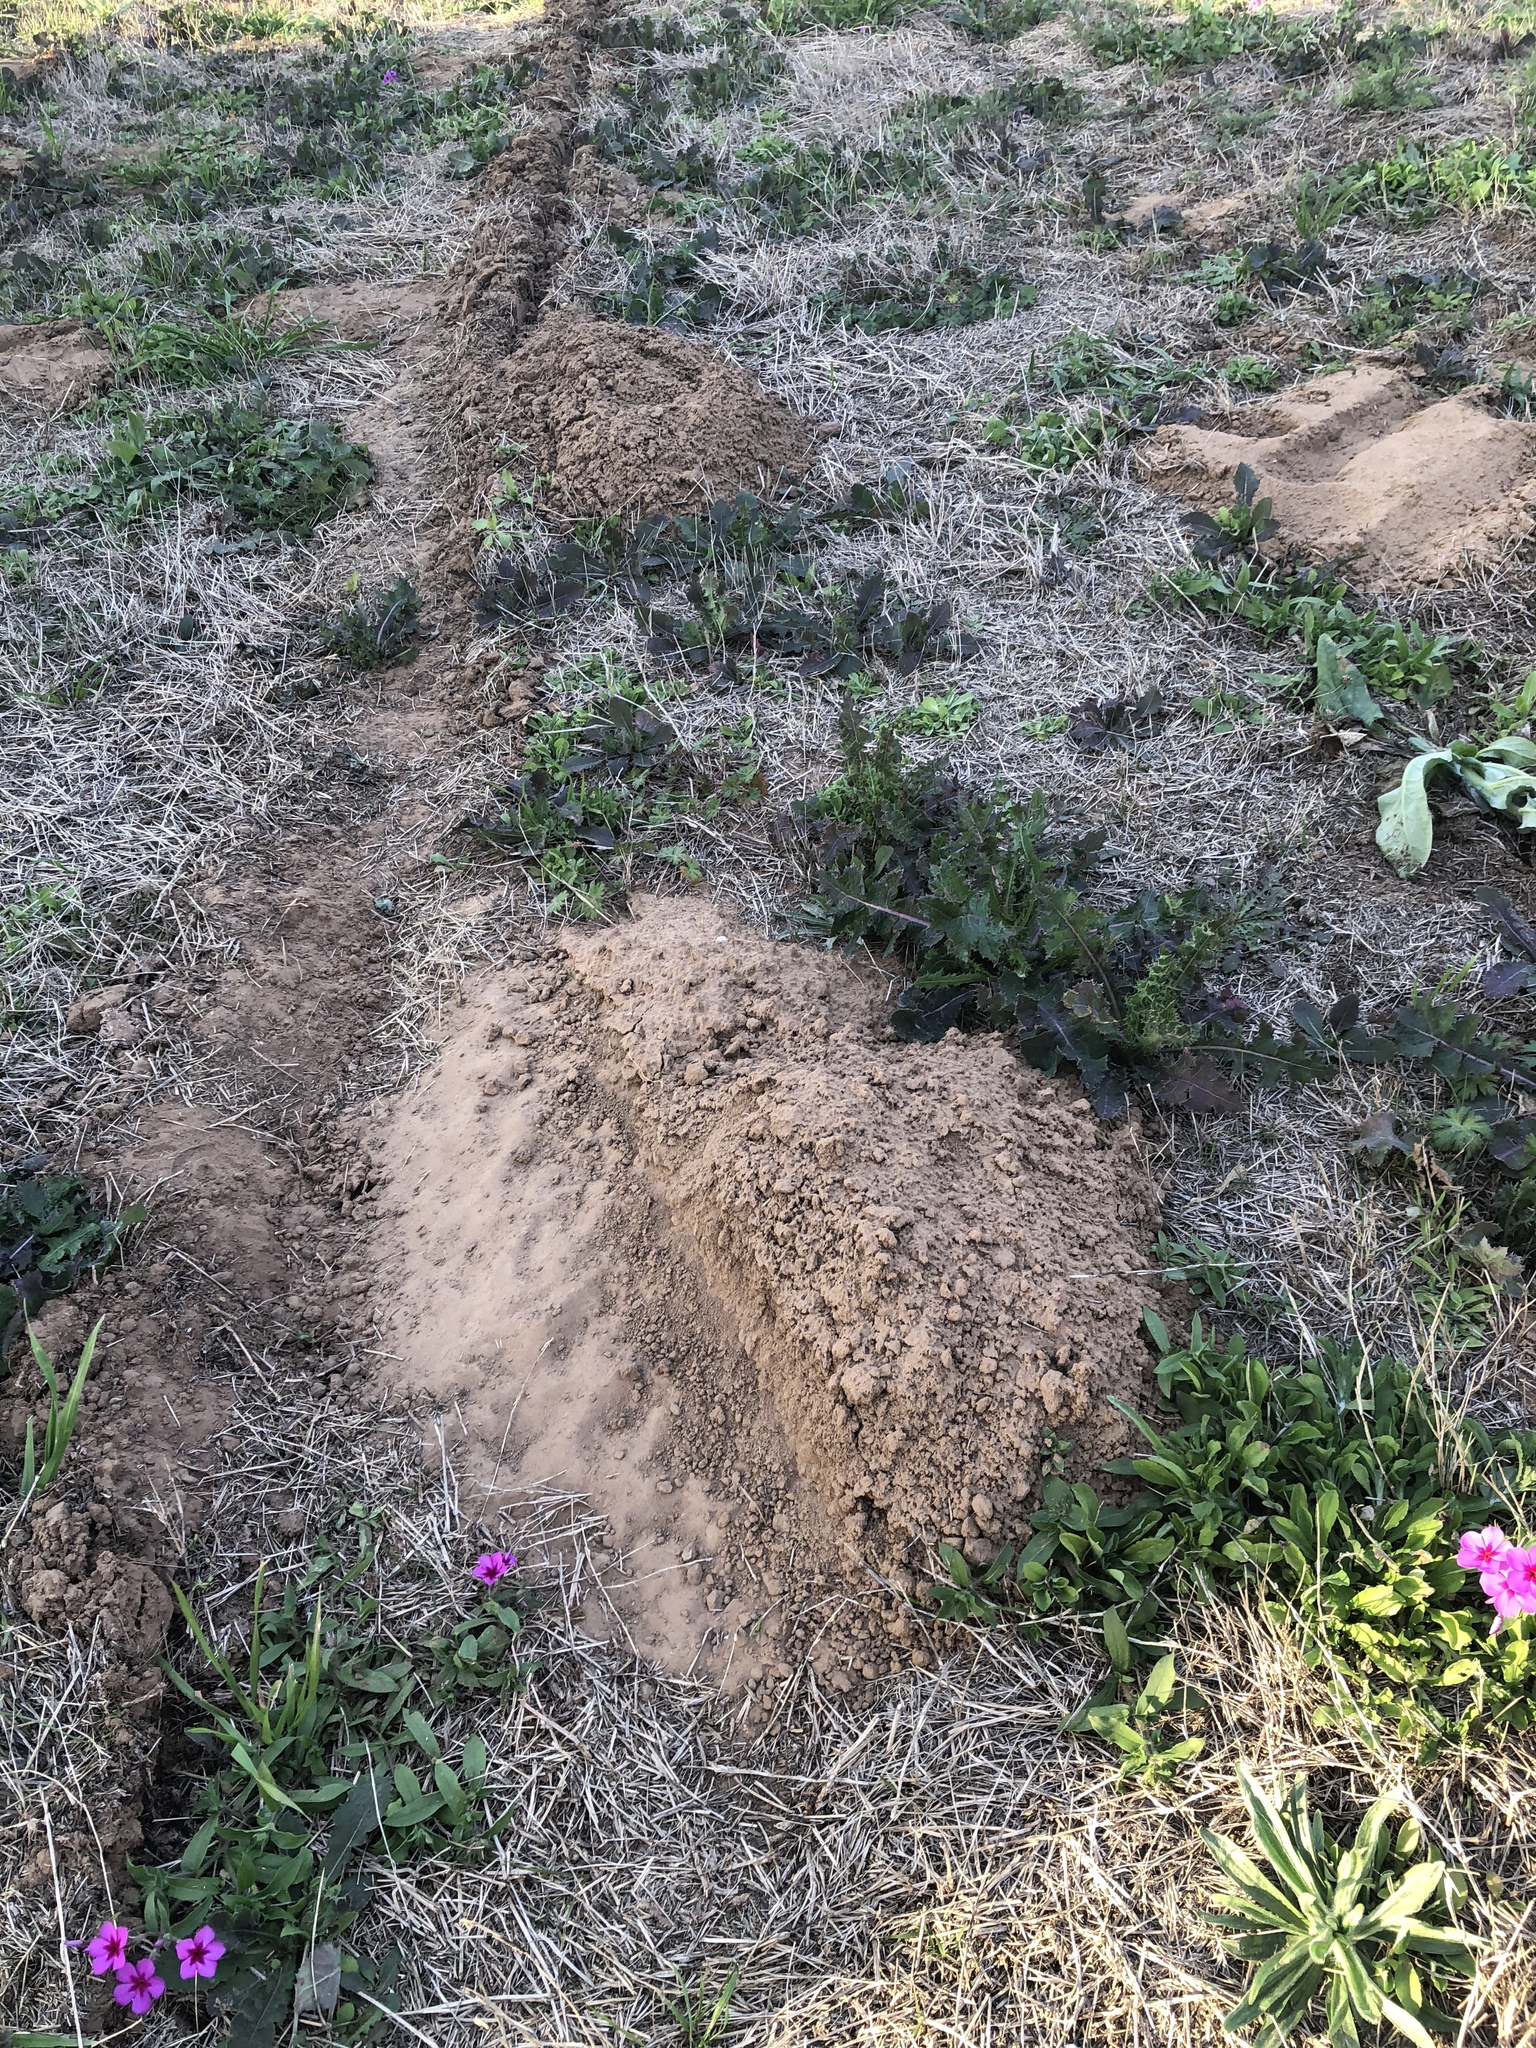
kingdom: Animalia
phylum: Chordata
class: Mammalia
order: Rodentia
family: Geomyidae
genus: Geomys
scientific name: Geomys attwateri
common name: Attwater's pocket gopher
